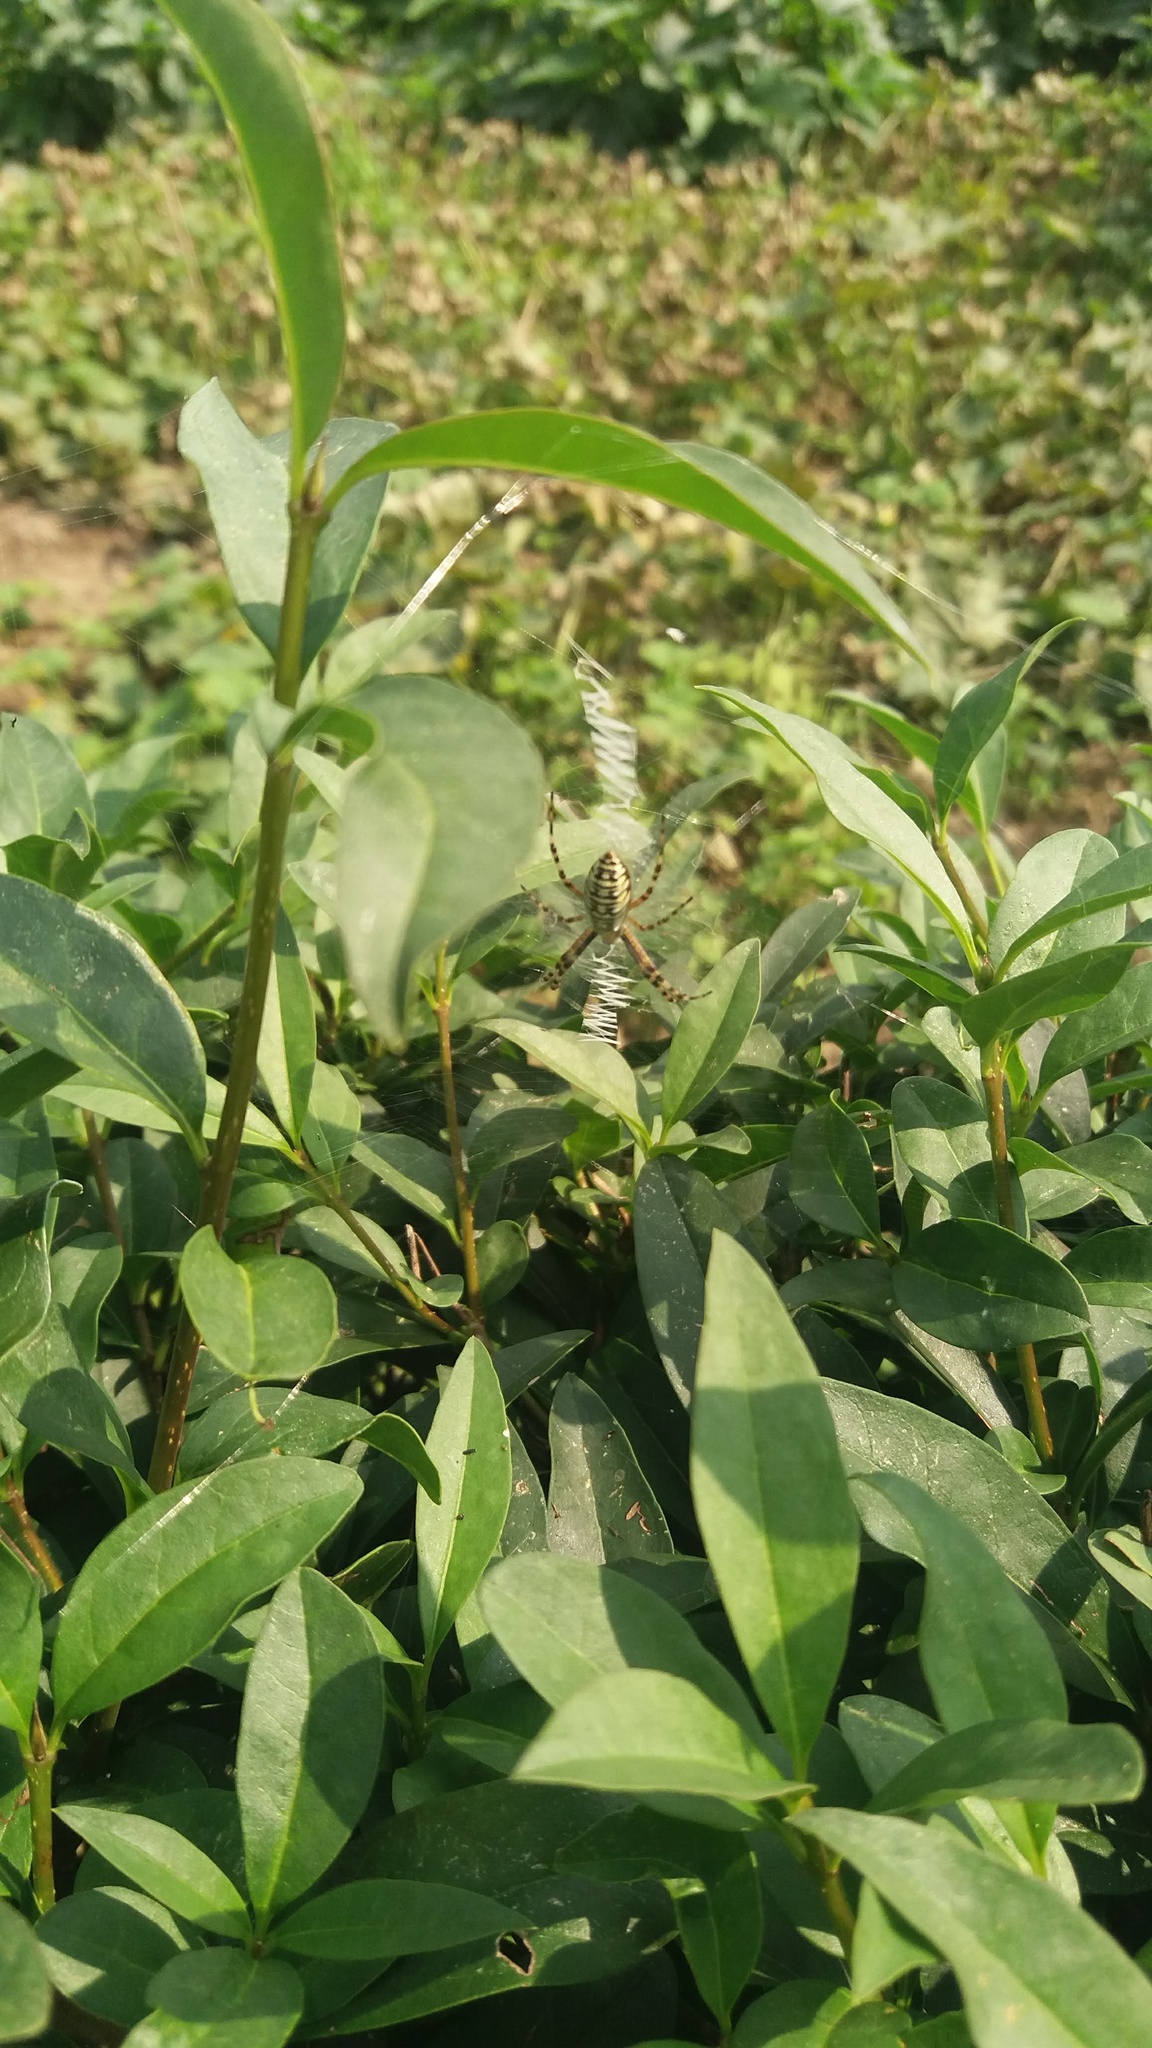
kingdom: Animalia
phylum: Arthropoda
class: Arachnida
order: Araneae
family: Araneidae
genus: Argiope
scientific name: Argiope bruennichi
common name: Wasp spider
